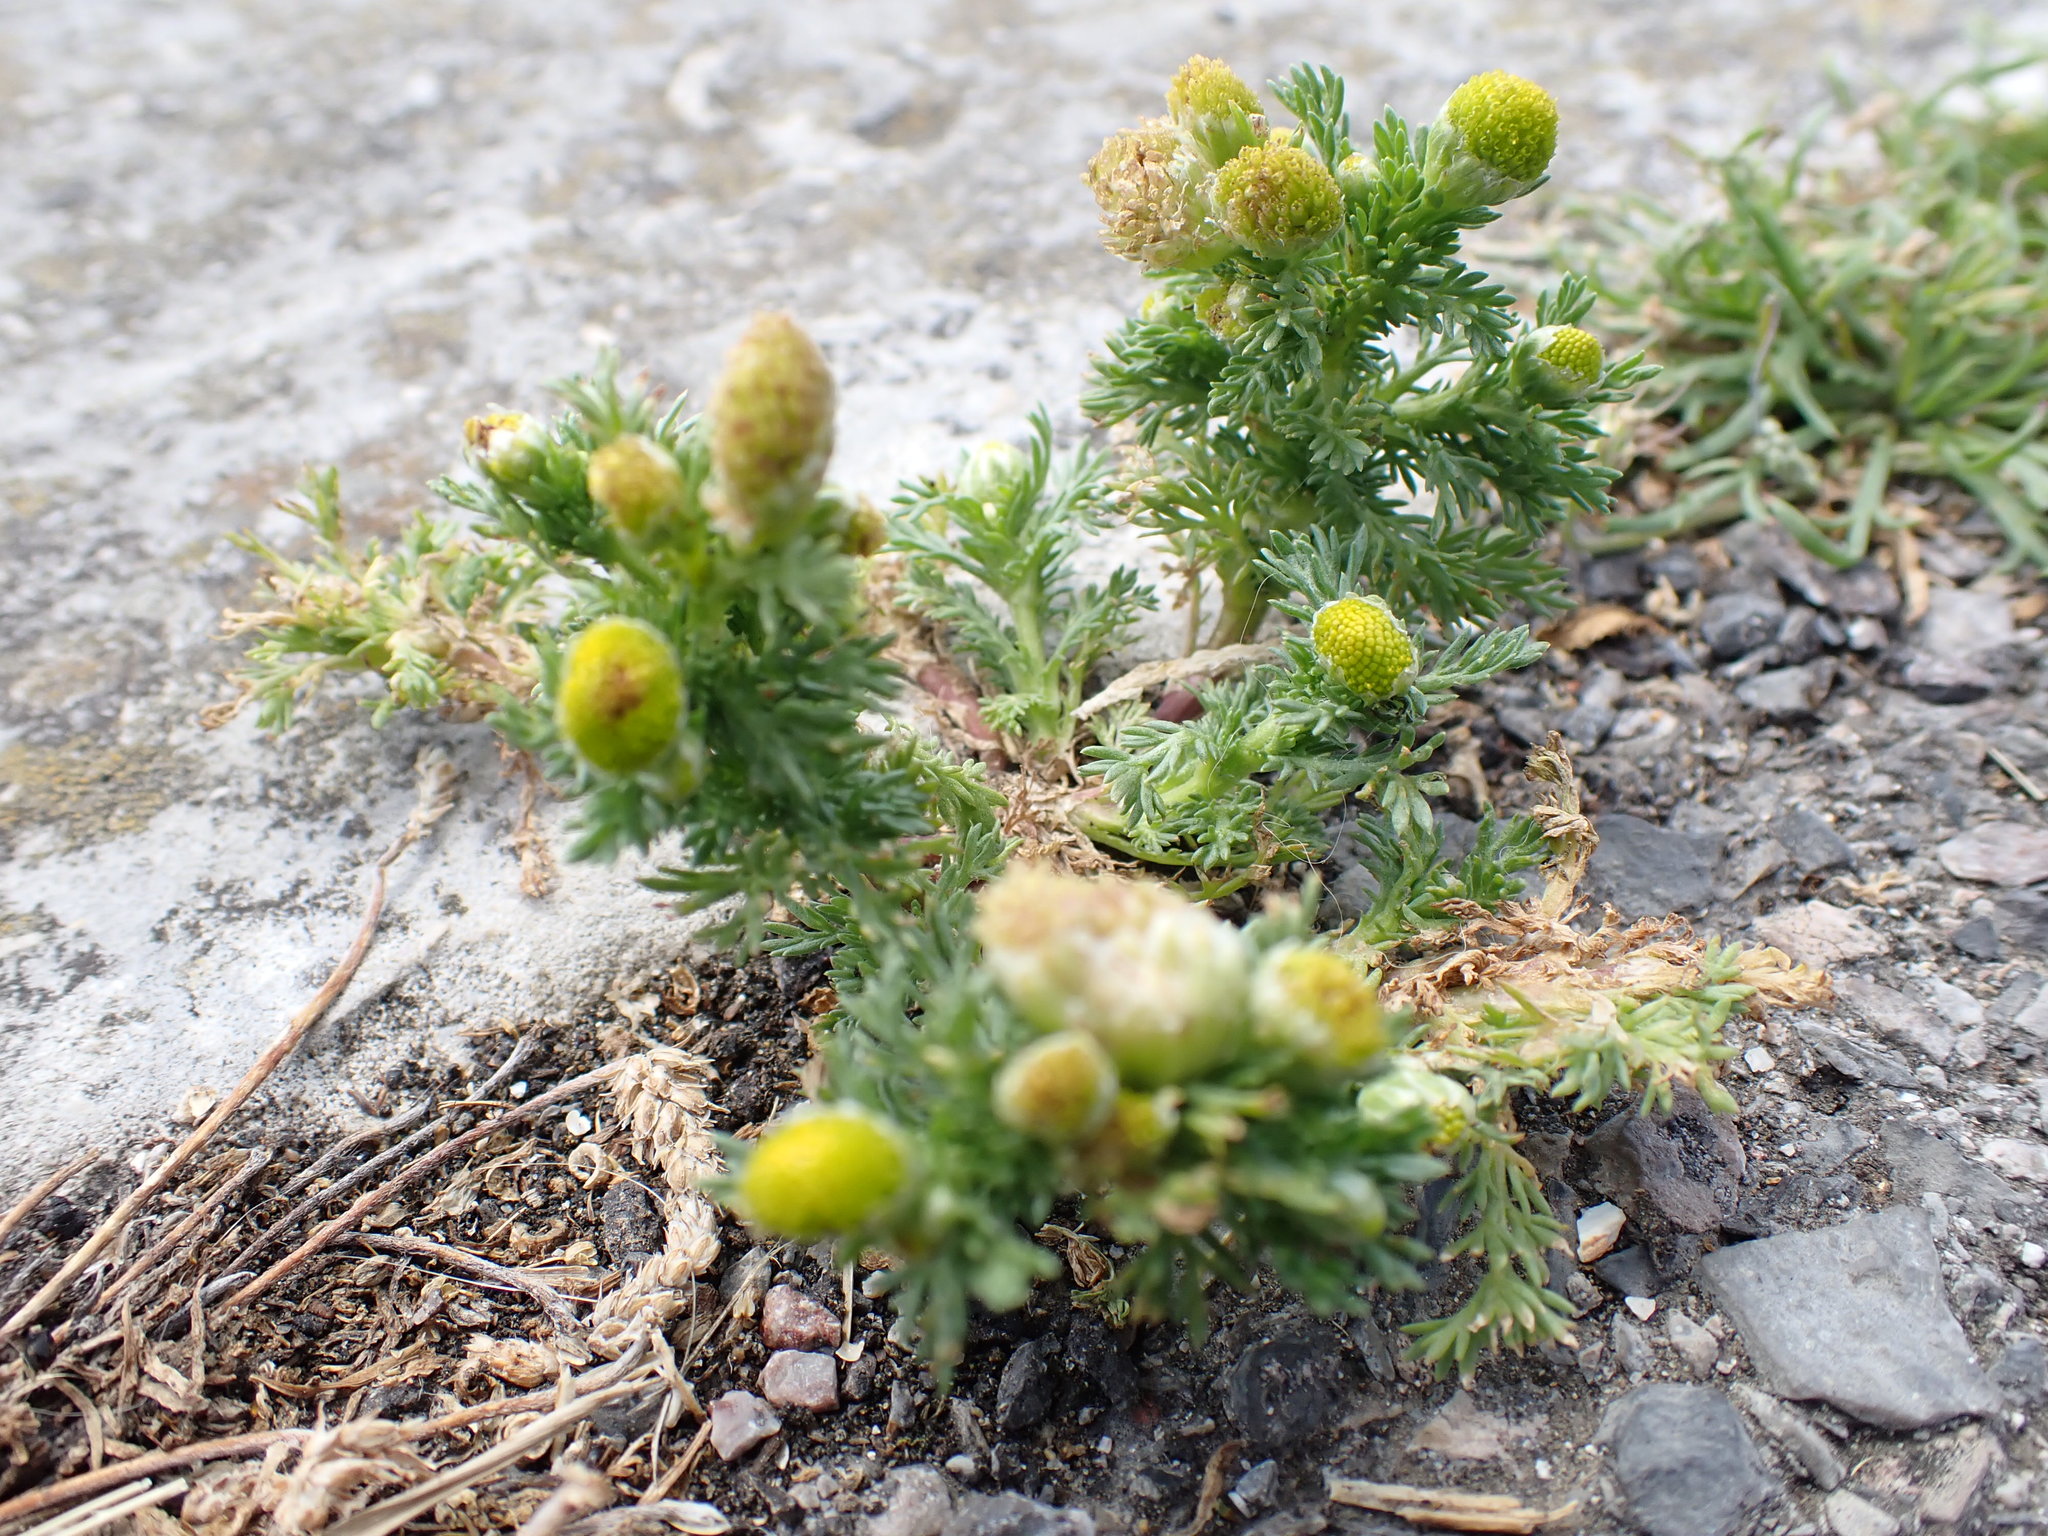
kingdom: Plantae
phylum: Tracheophyta
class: Magnoliopsida
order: Asterales
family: Asteraceae
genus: Matricaria
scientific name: Matricaria discoidea
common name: Disc mayweed
